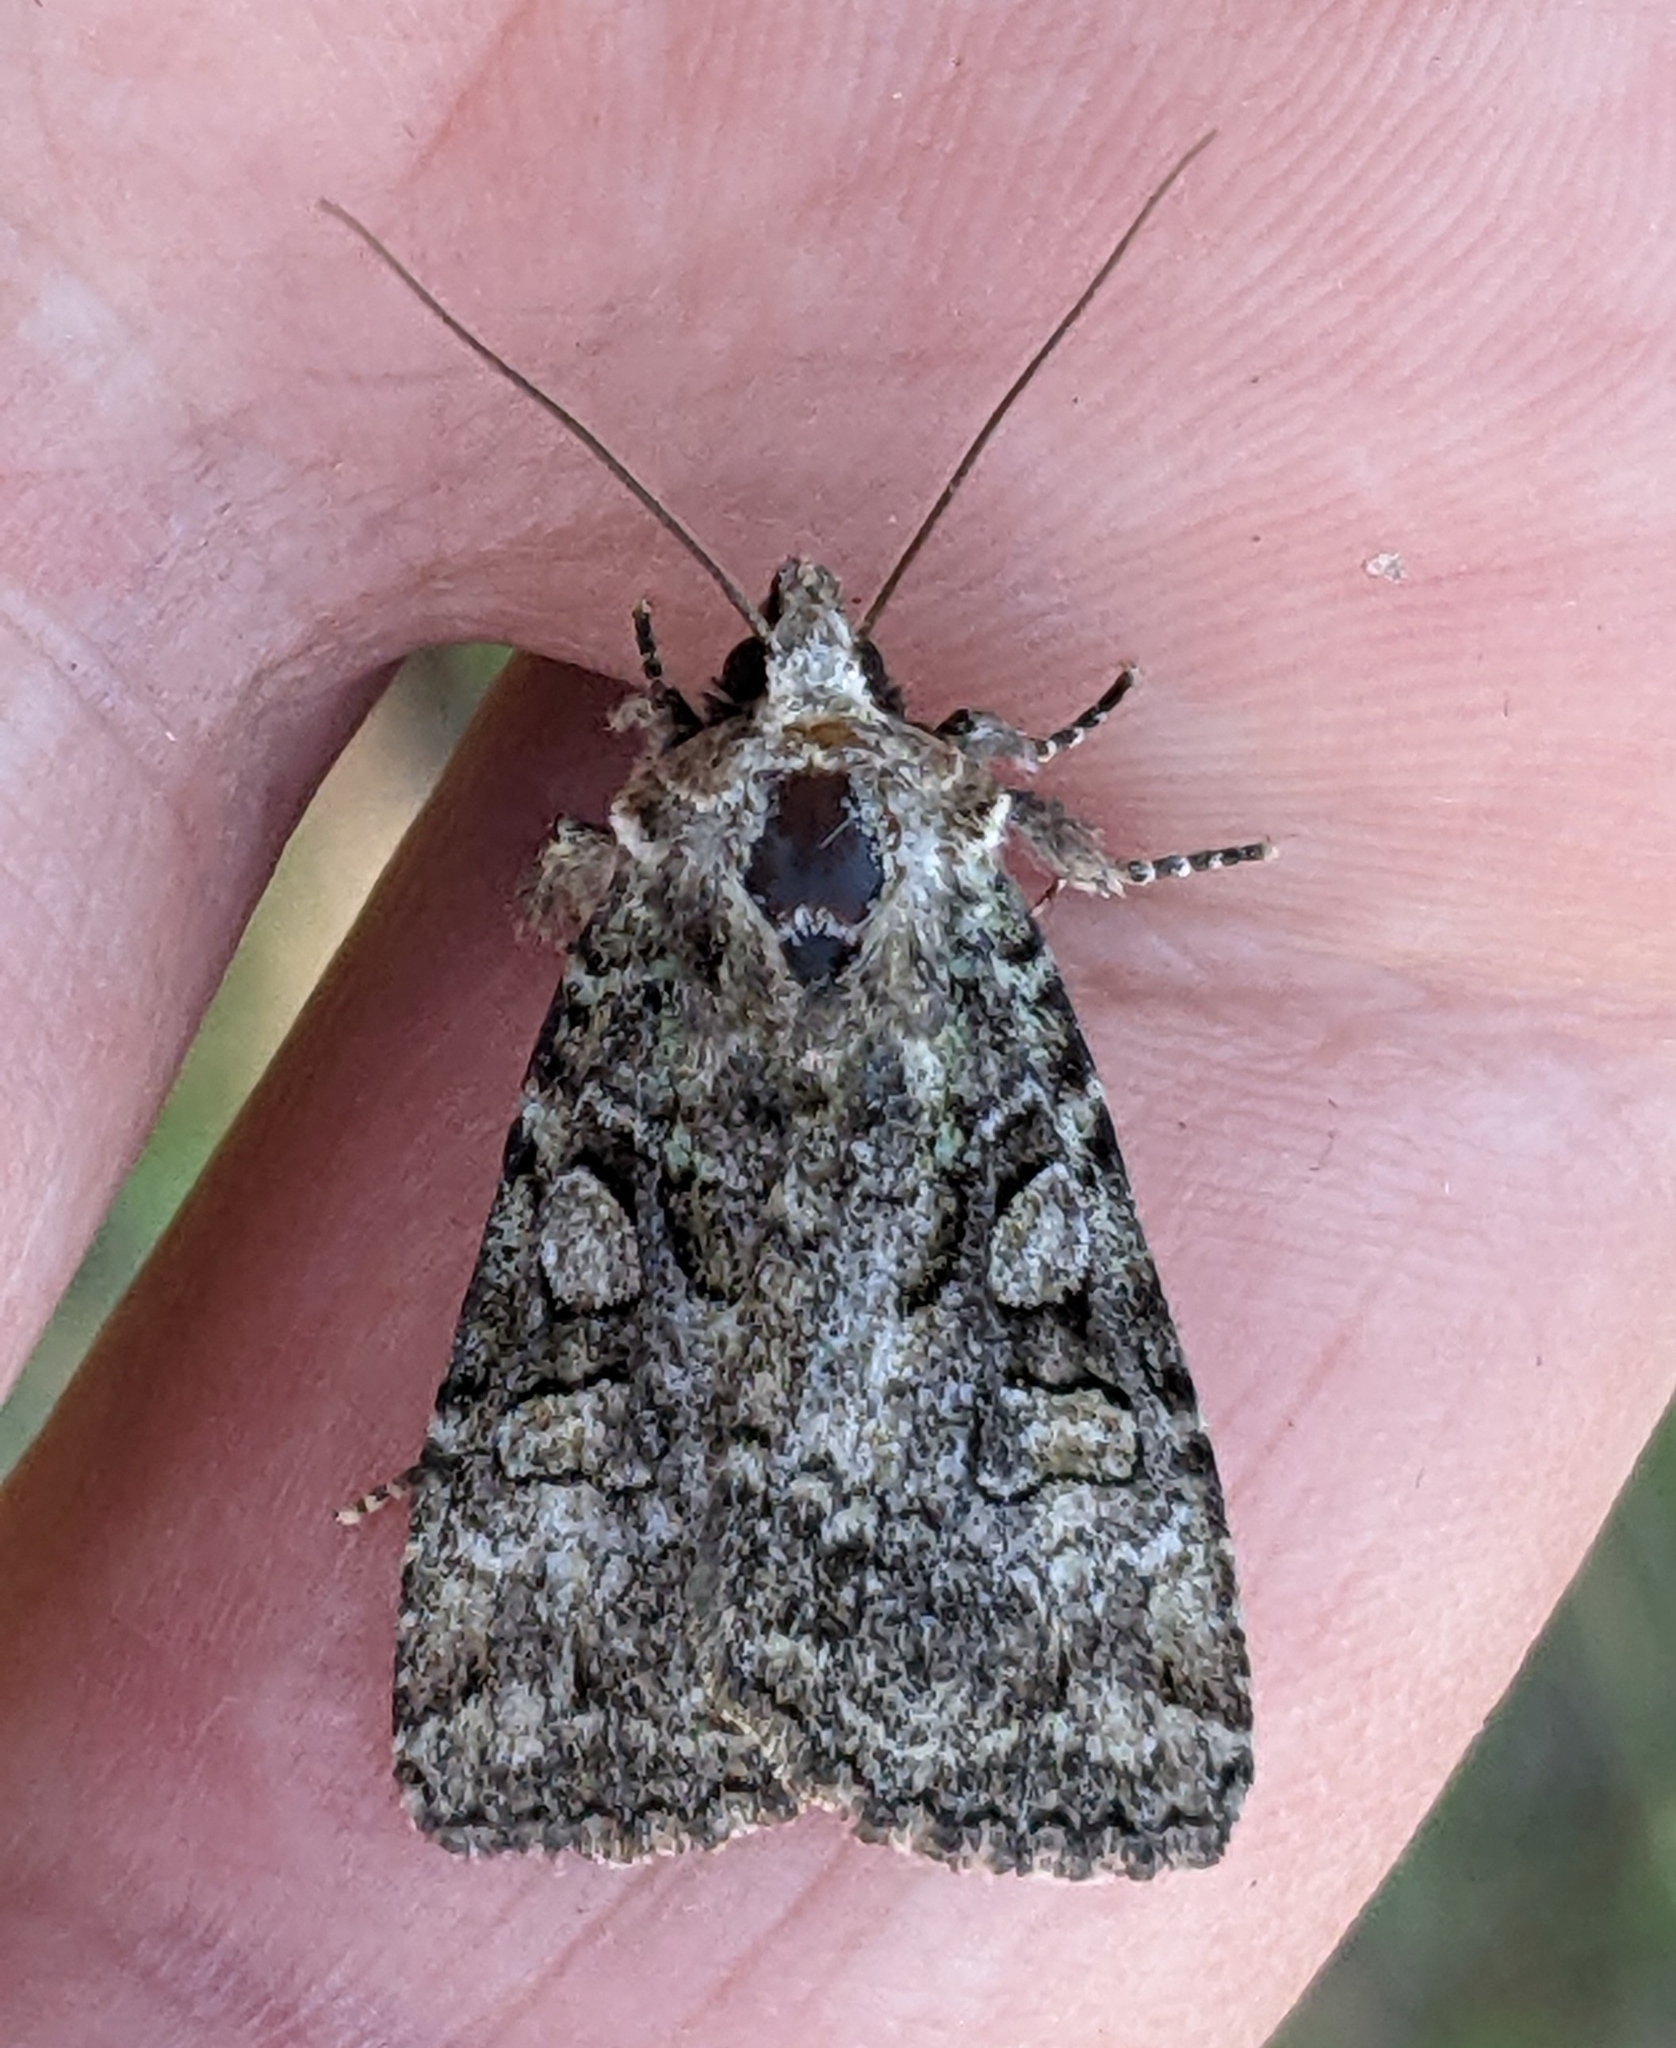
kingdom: Animalia
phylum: Arthropoda
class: Insecta
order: Lepidoptera
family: Noctuidae
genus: Anaplectoides
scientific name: Anaplectoides pressus
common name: Dappled dart
